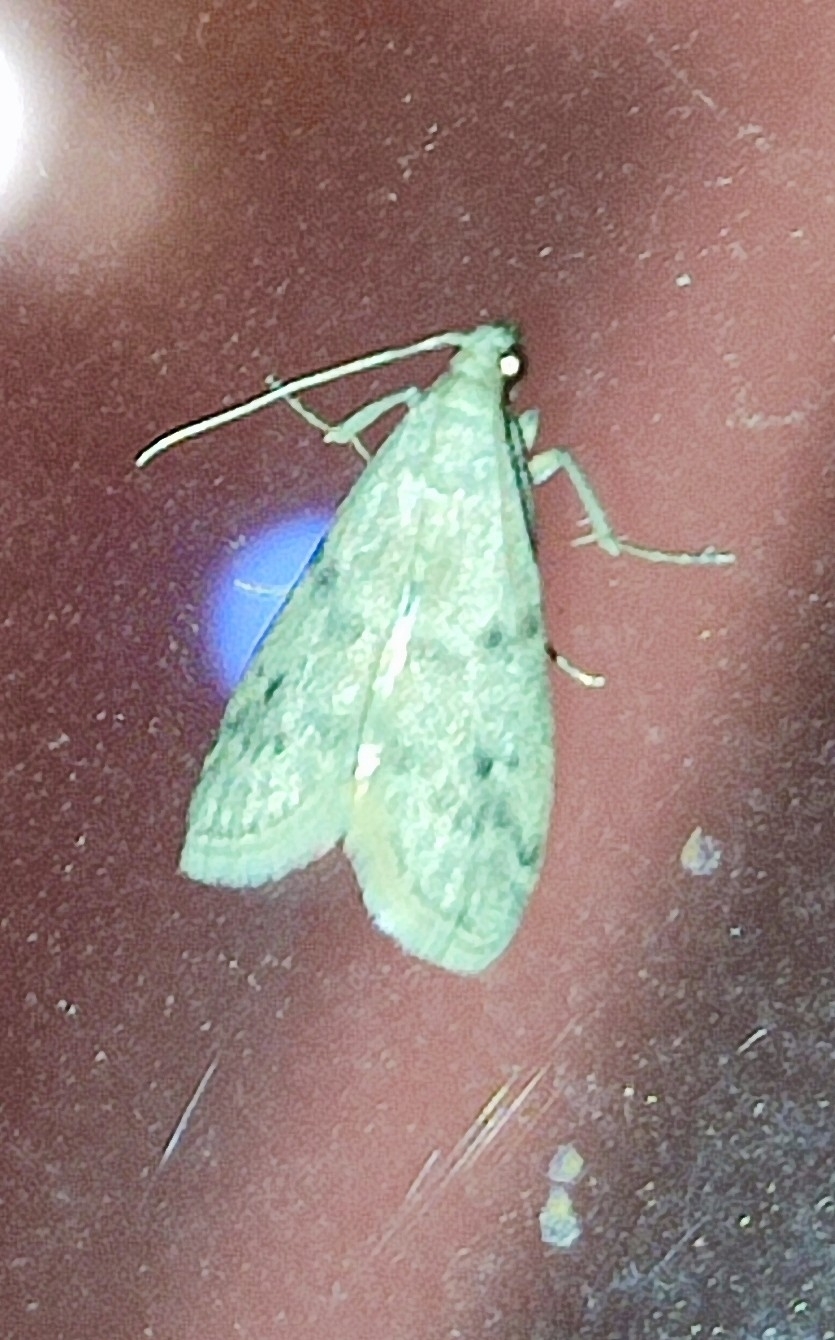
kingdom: Animalia
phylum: Arthropoda
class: Insecta
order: Lepidoptera
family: Pyralidae
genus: Ephestia
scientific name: Ephestia elutella
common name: Cacao moth
